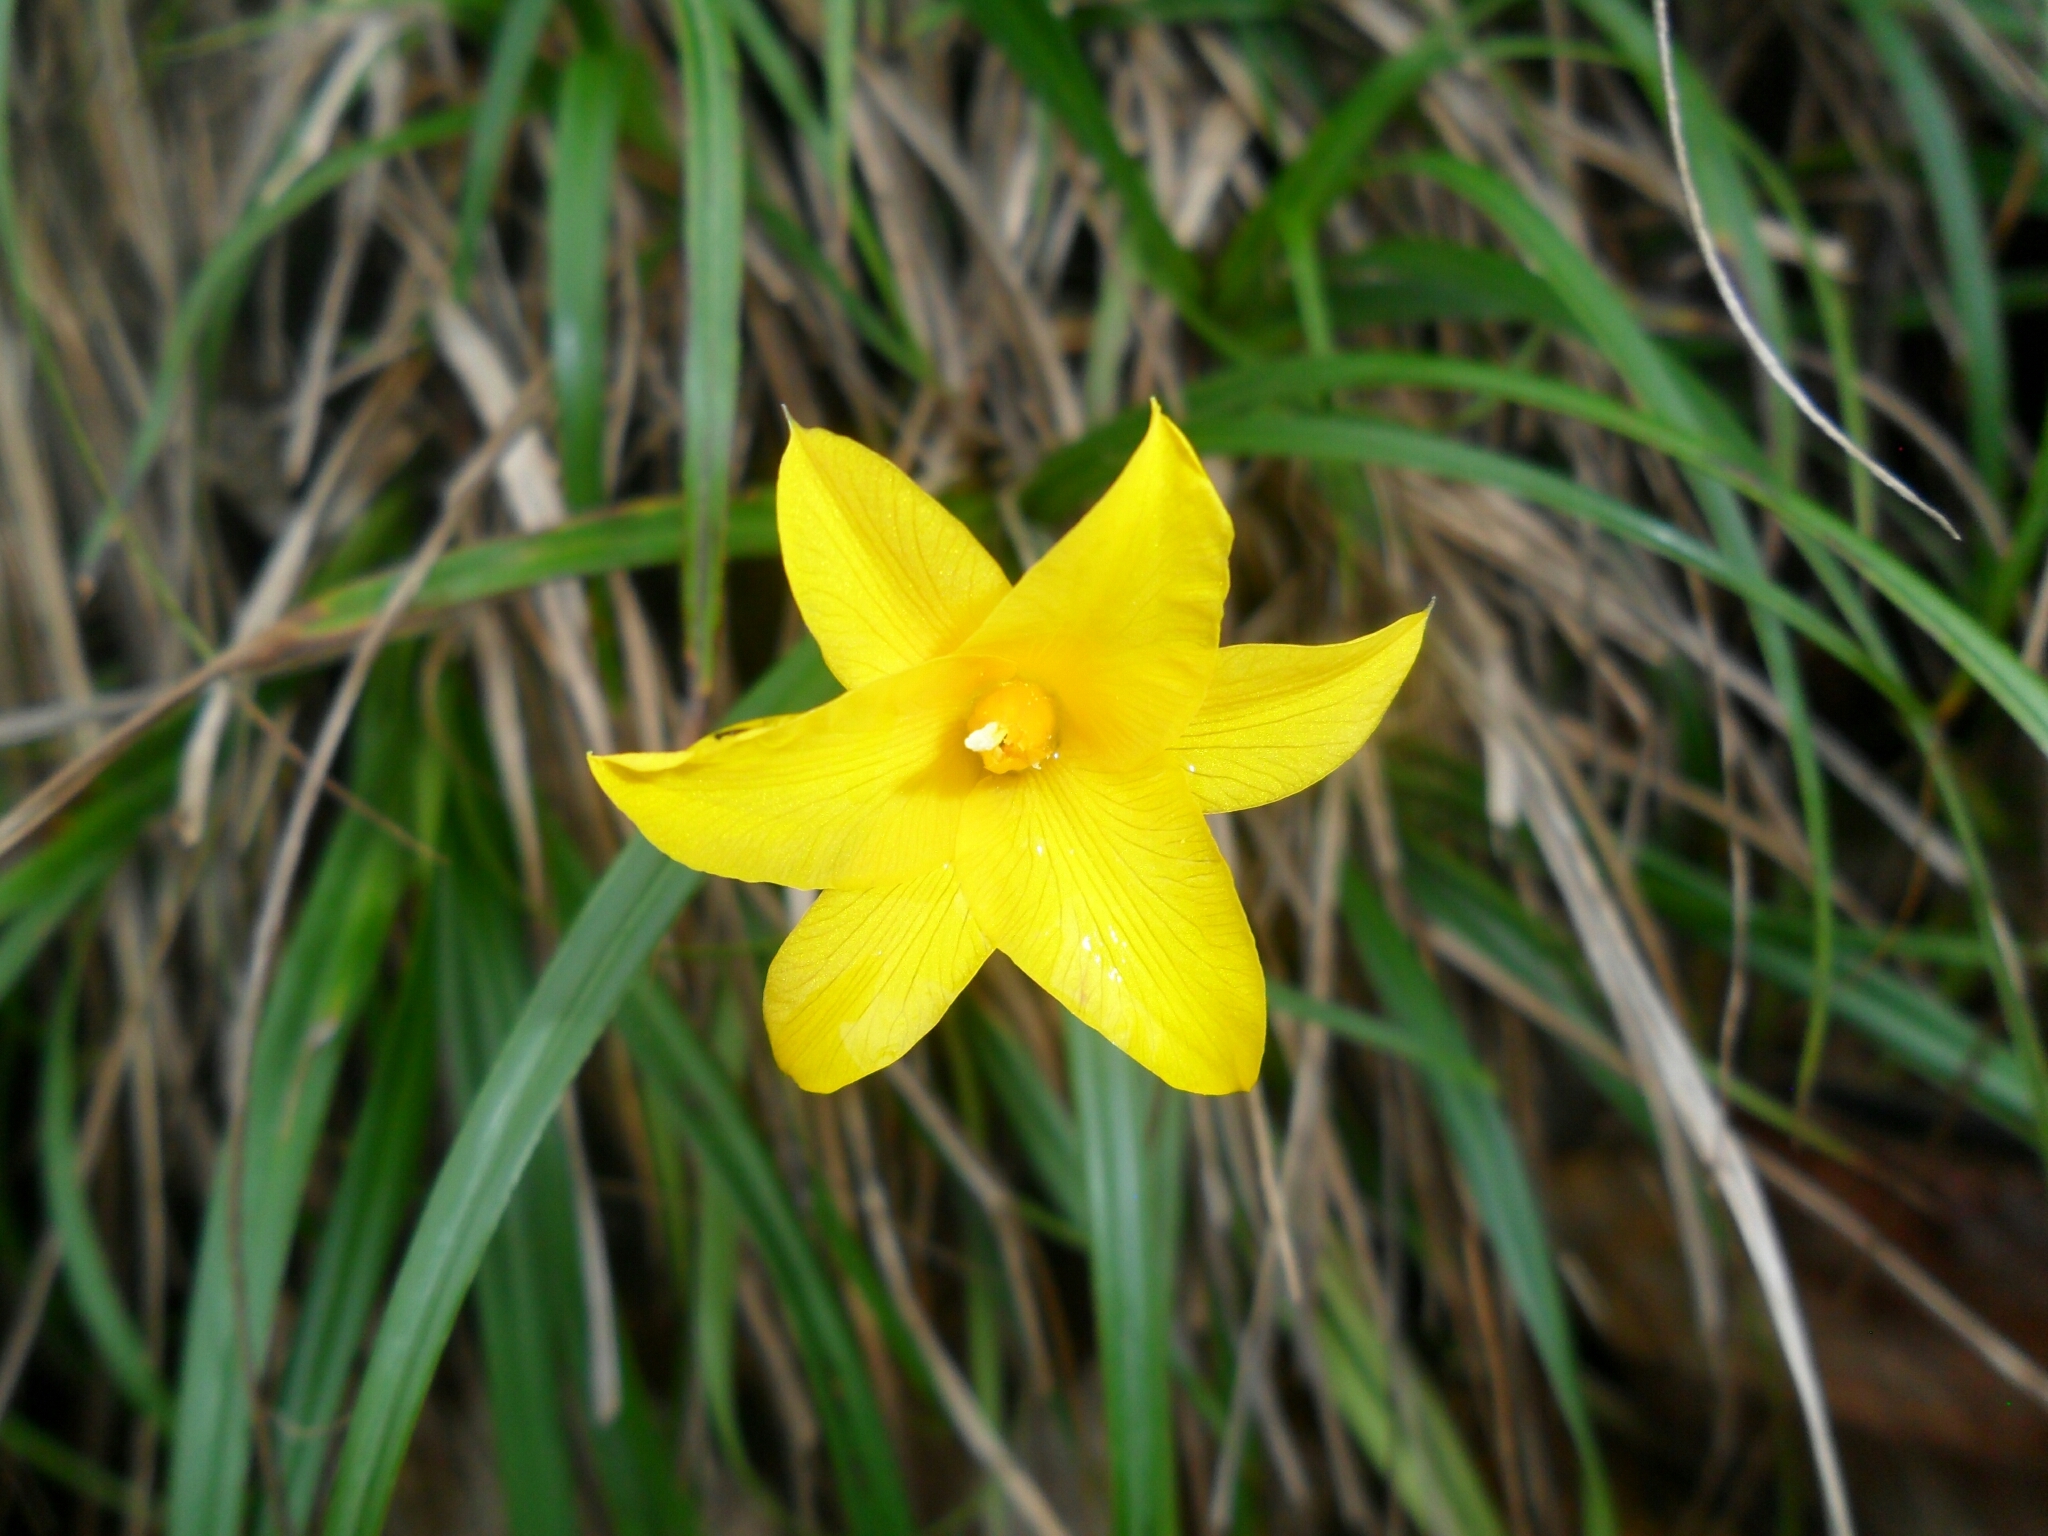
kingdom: Plantae
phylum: Tracheophyta
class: Liliopsida
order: Pandanales
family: Velloziaceae
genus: Barbacenia
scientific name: Barbacenia glabra
